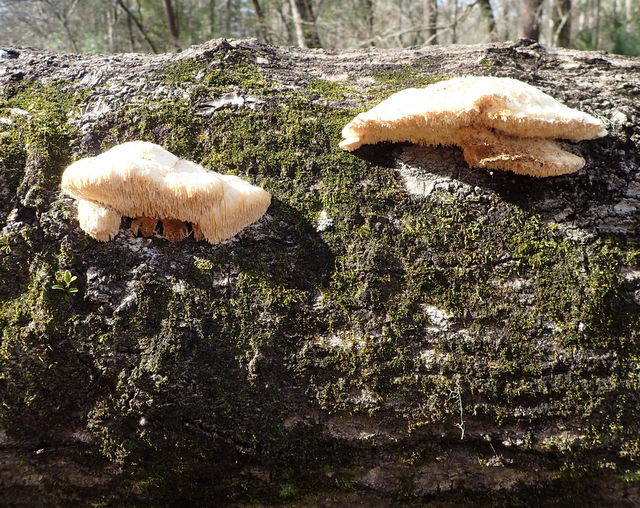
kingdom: Fungi
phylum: Basidiomycota
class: Agaricomycetes
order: Russulales
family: Hericiaceae
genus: Hericium
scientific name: Hericium erinaceus
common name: Bearded tooth
